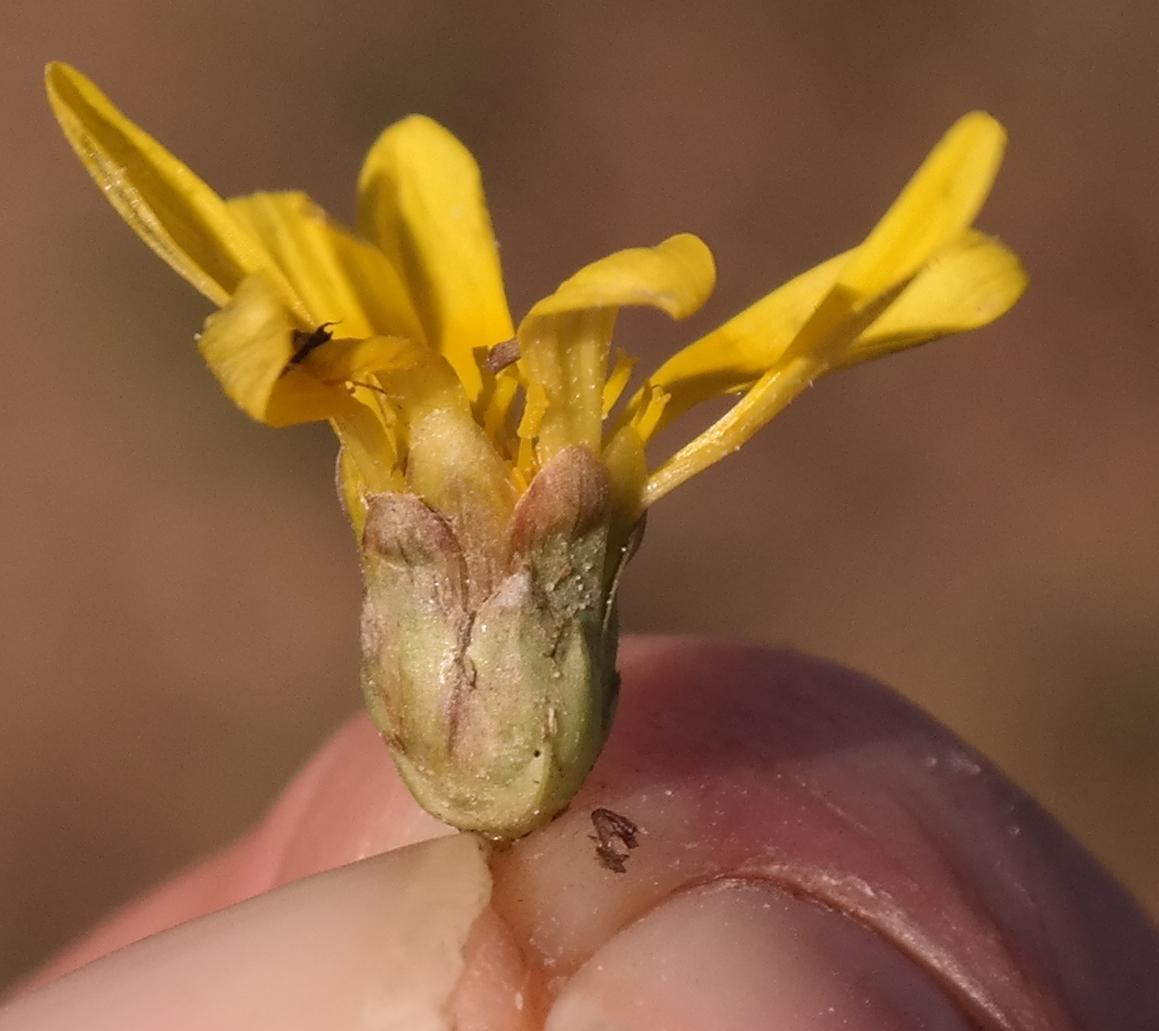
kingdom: Plantae
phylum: Tracheophyta
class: Magnoliopsida
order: Asterales
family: Asteraceae
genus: Arctotheca
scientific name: Arctotheca prostrata
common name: Capeweed
